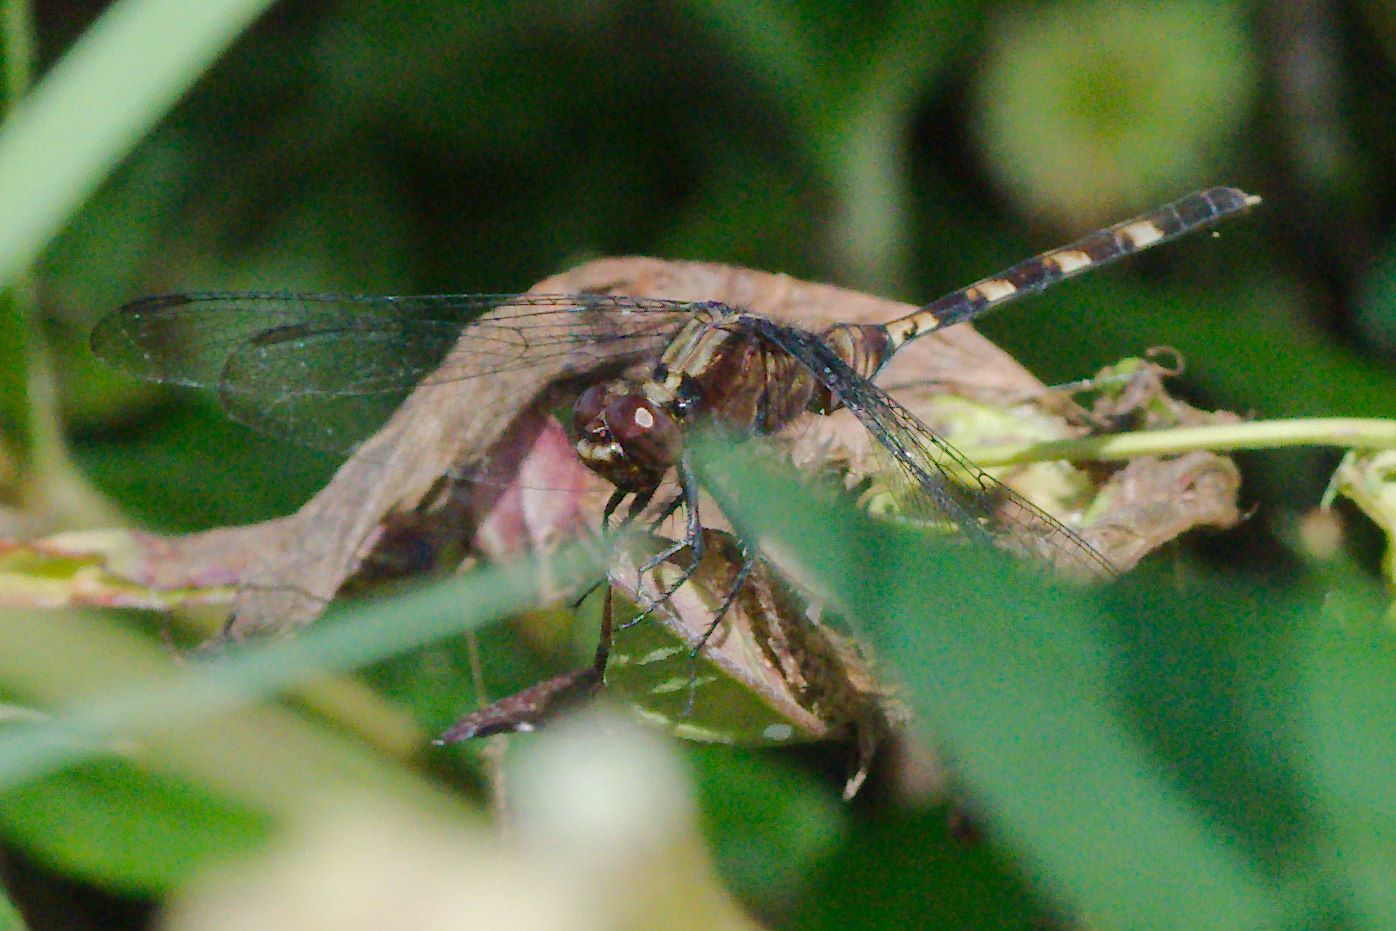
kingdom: Animalia
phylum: Arthropoda
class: Insecta
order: Odonata
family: Libellulidae
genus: Erythemis
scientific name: Erythemis plebeja
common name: Pin-tailed pondhawk
